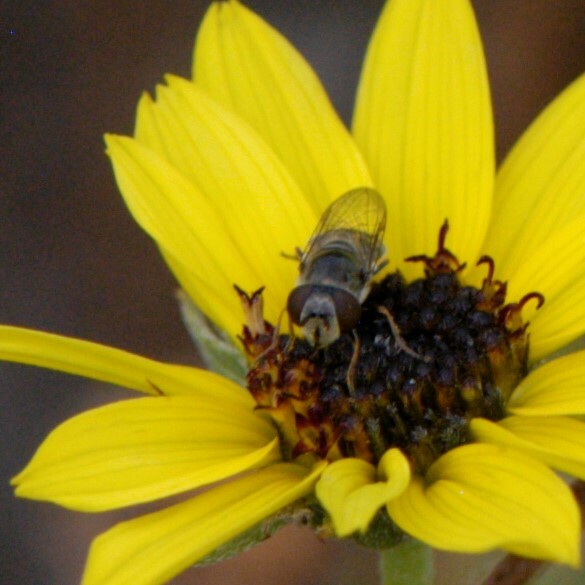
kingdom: Animalia
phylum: Arthropoda
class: Insecta
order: Diptera
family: Syrphidae
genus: Platycheirus
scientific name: Platycheirus
